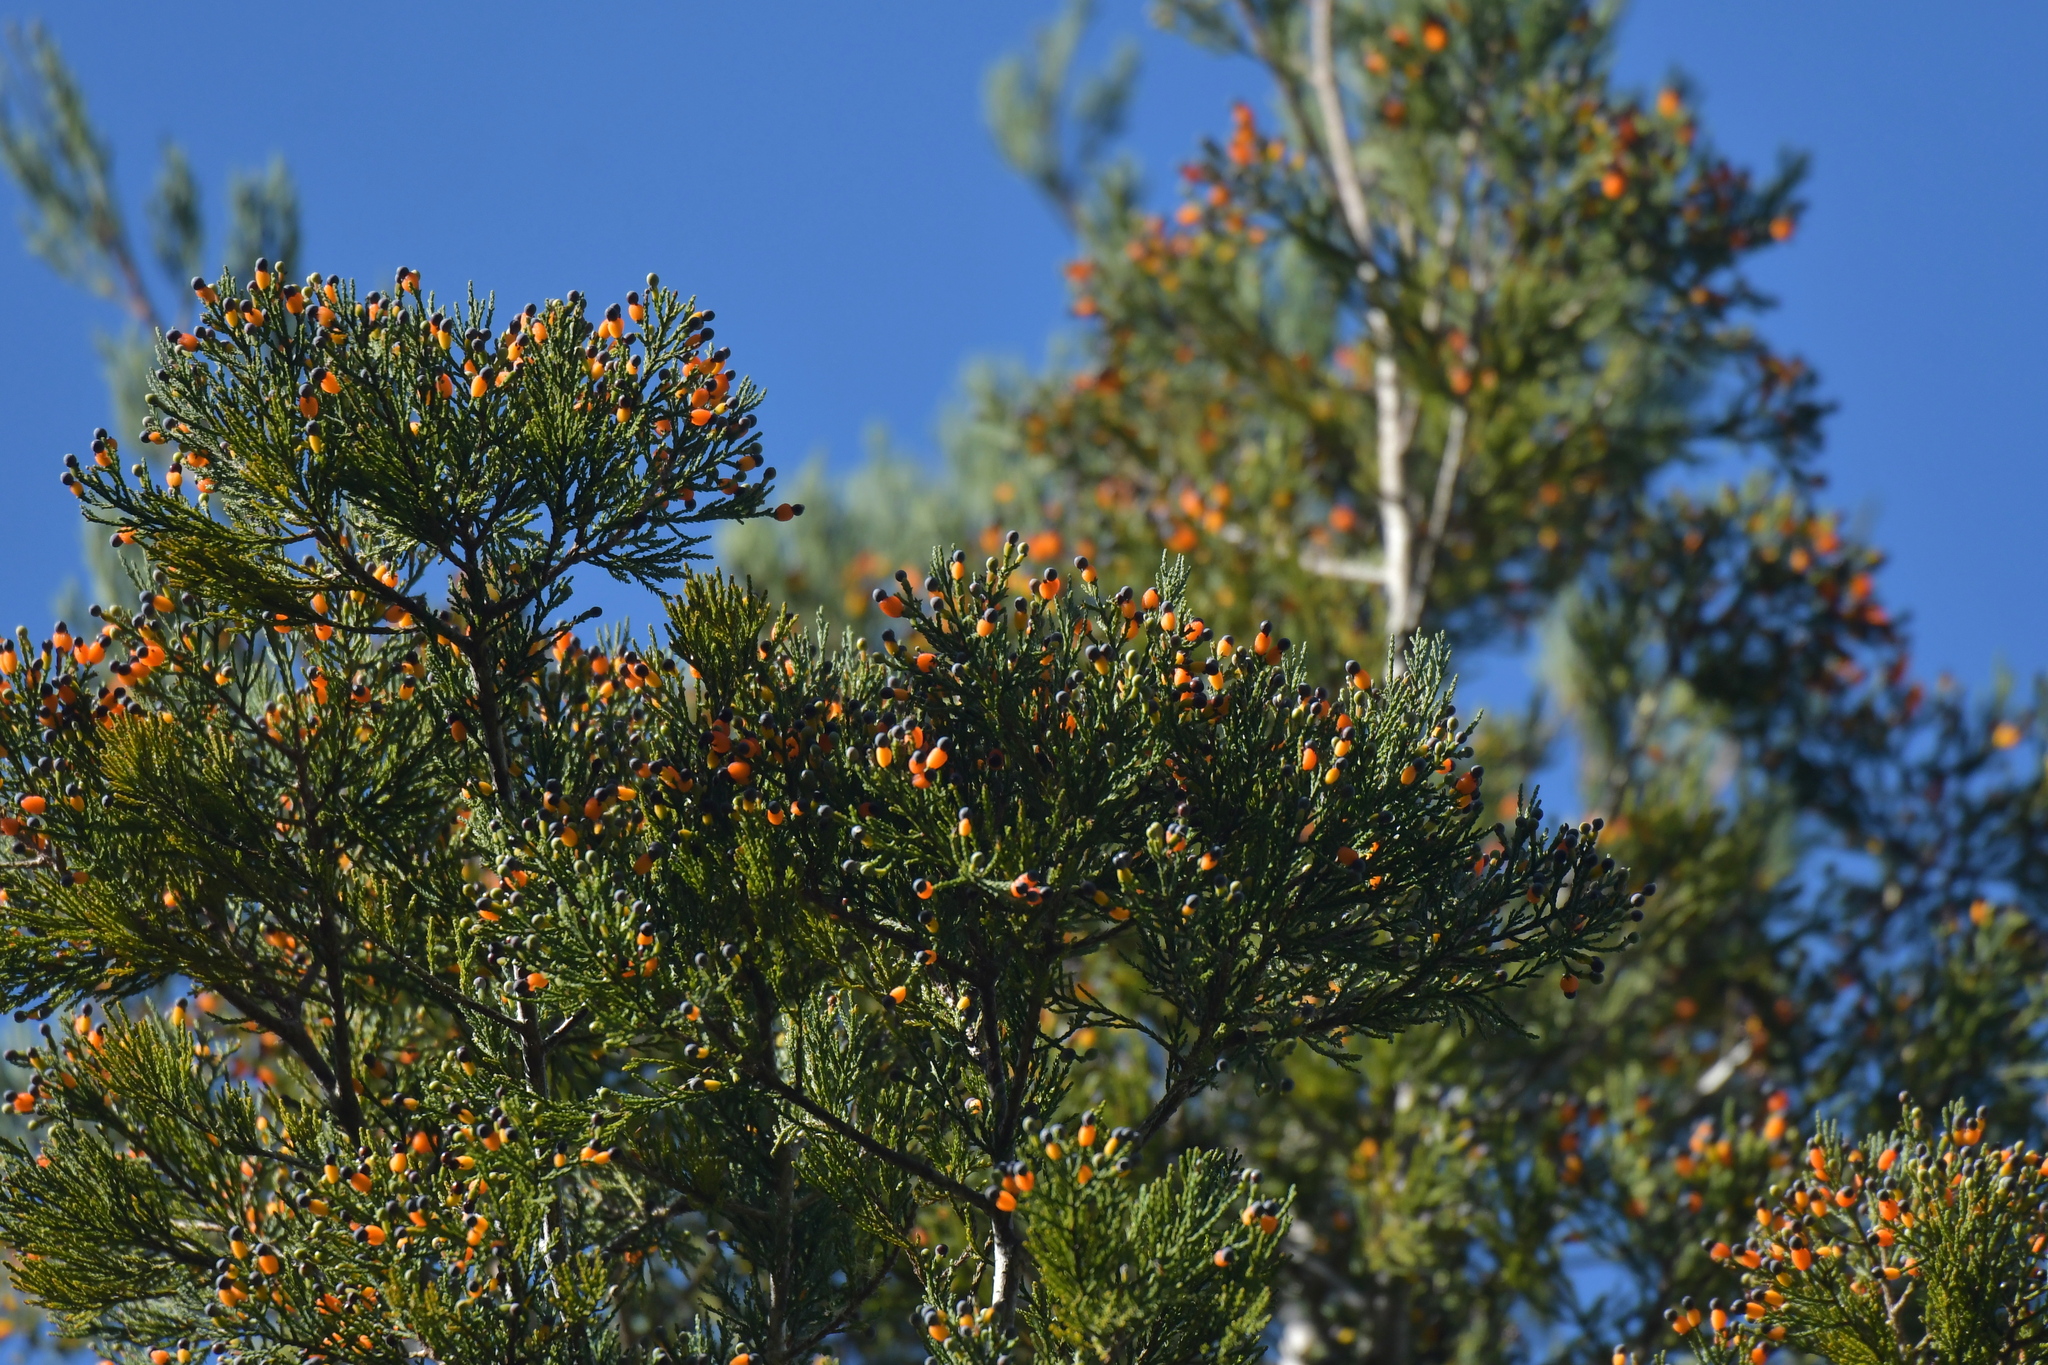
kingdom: Plantae
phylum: Tracheophyta
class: Pinopsida
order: Pinales
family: Podocarpaceae
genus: Dacrycarpus
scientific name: Dacrycarpus dacrydioides
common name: White pine
